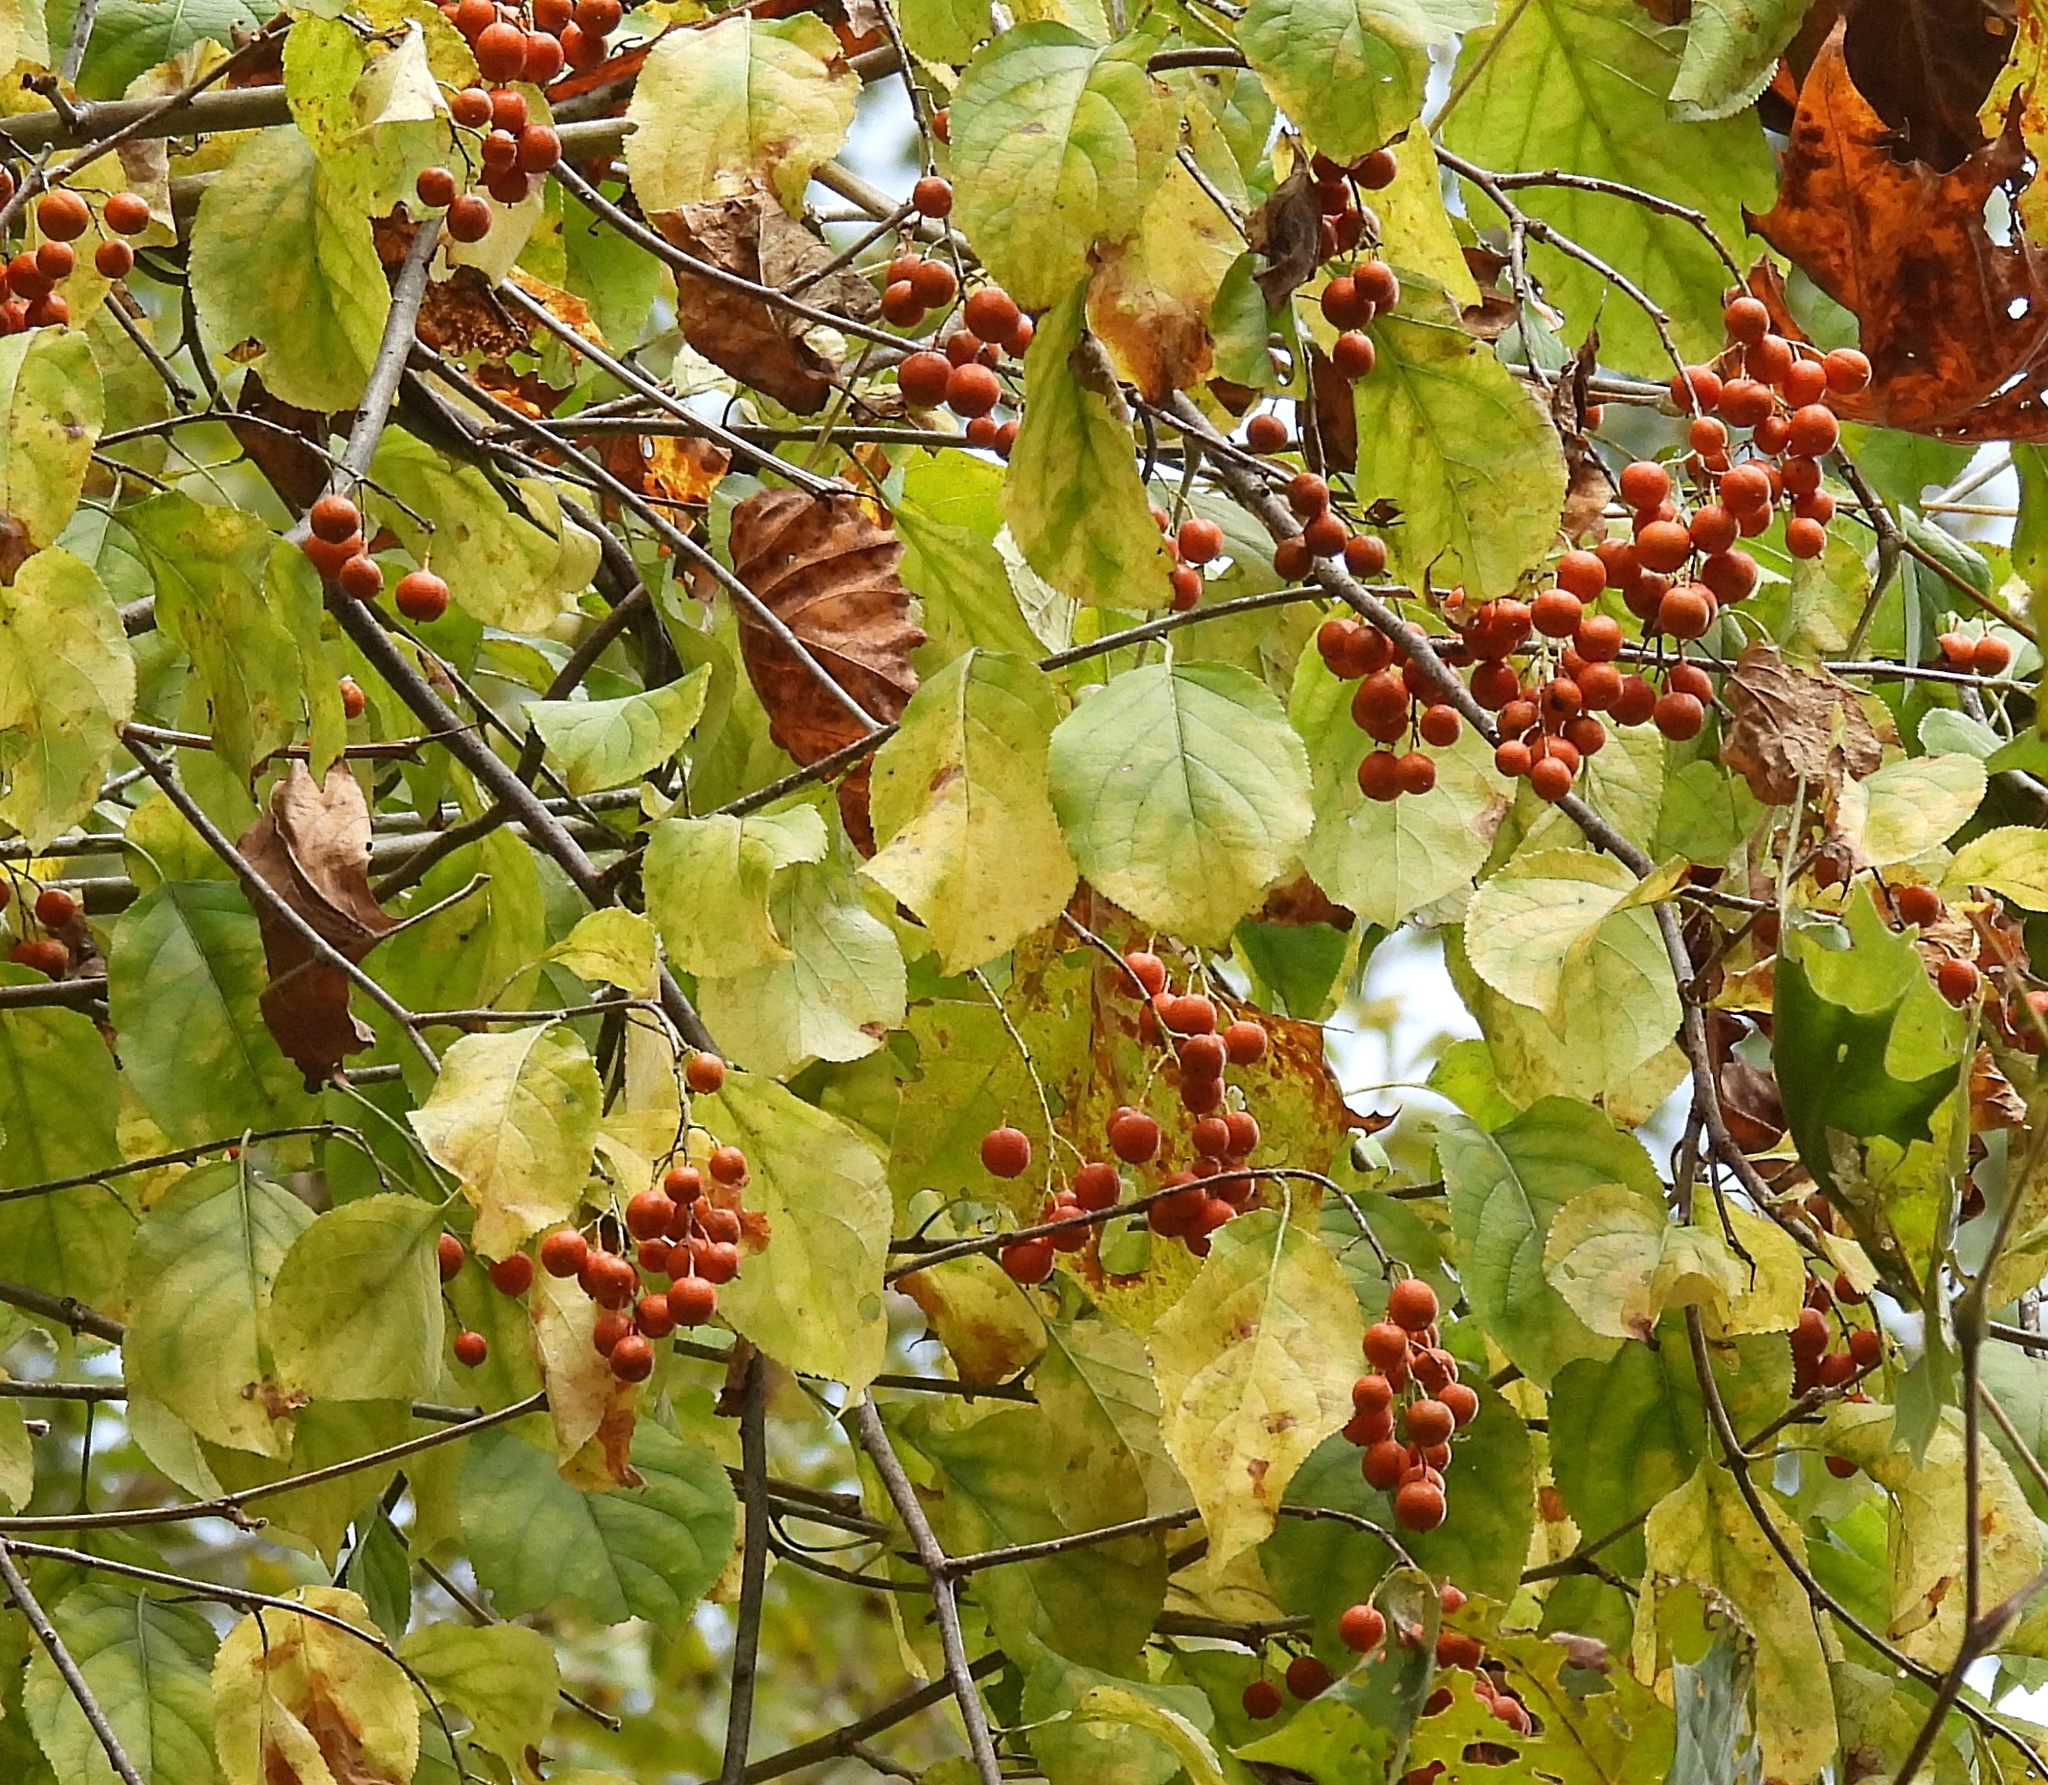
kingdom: Plantae
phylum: Tracheophyta
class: Magnoliopsida
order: Celastrales
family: Celastraceae
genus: Celastrus
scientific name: Celastrus scandens
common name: American bittersweet
